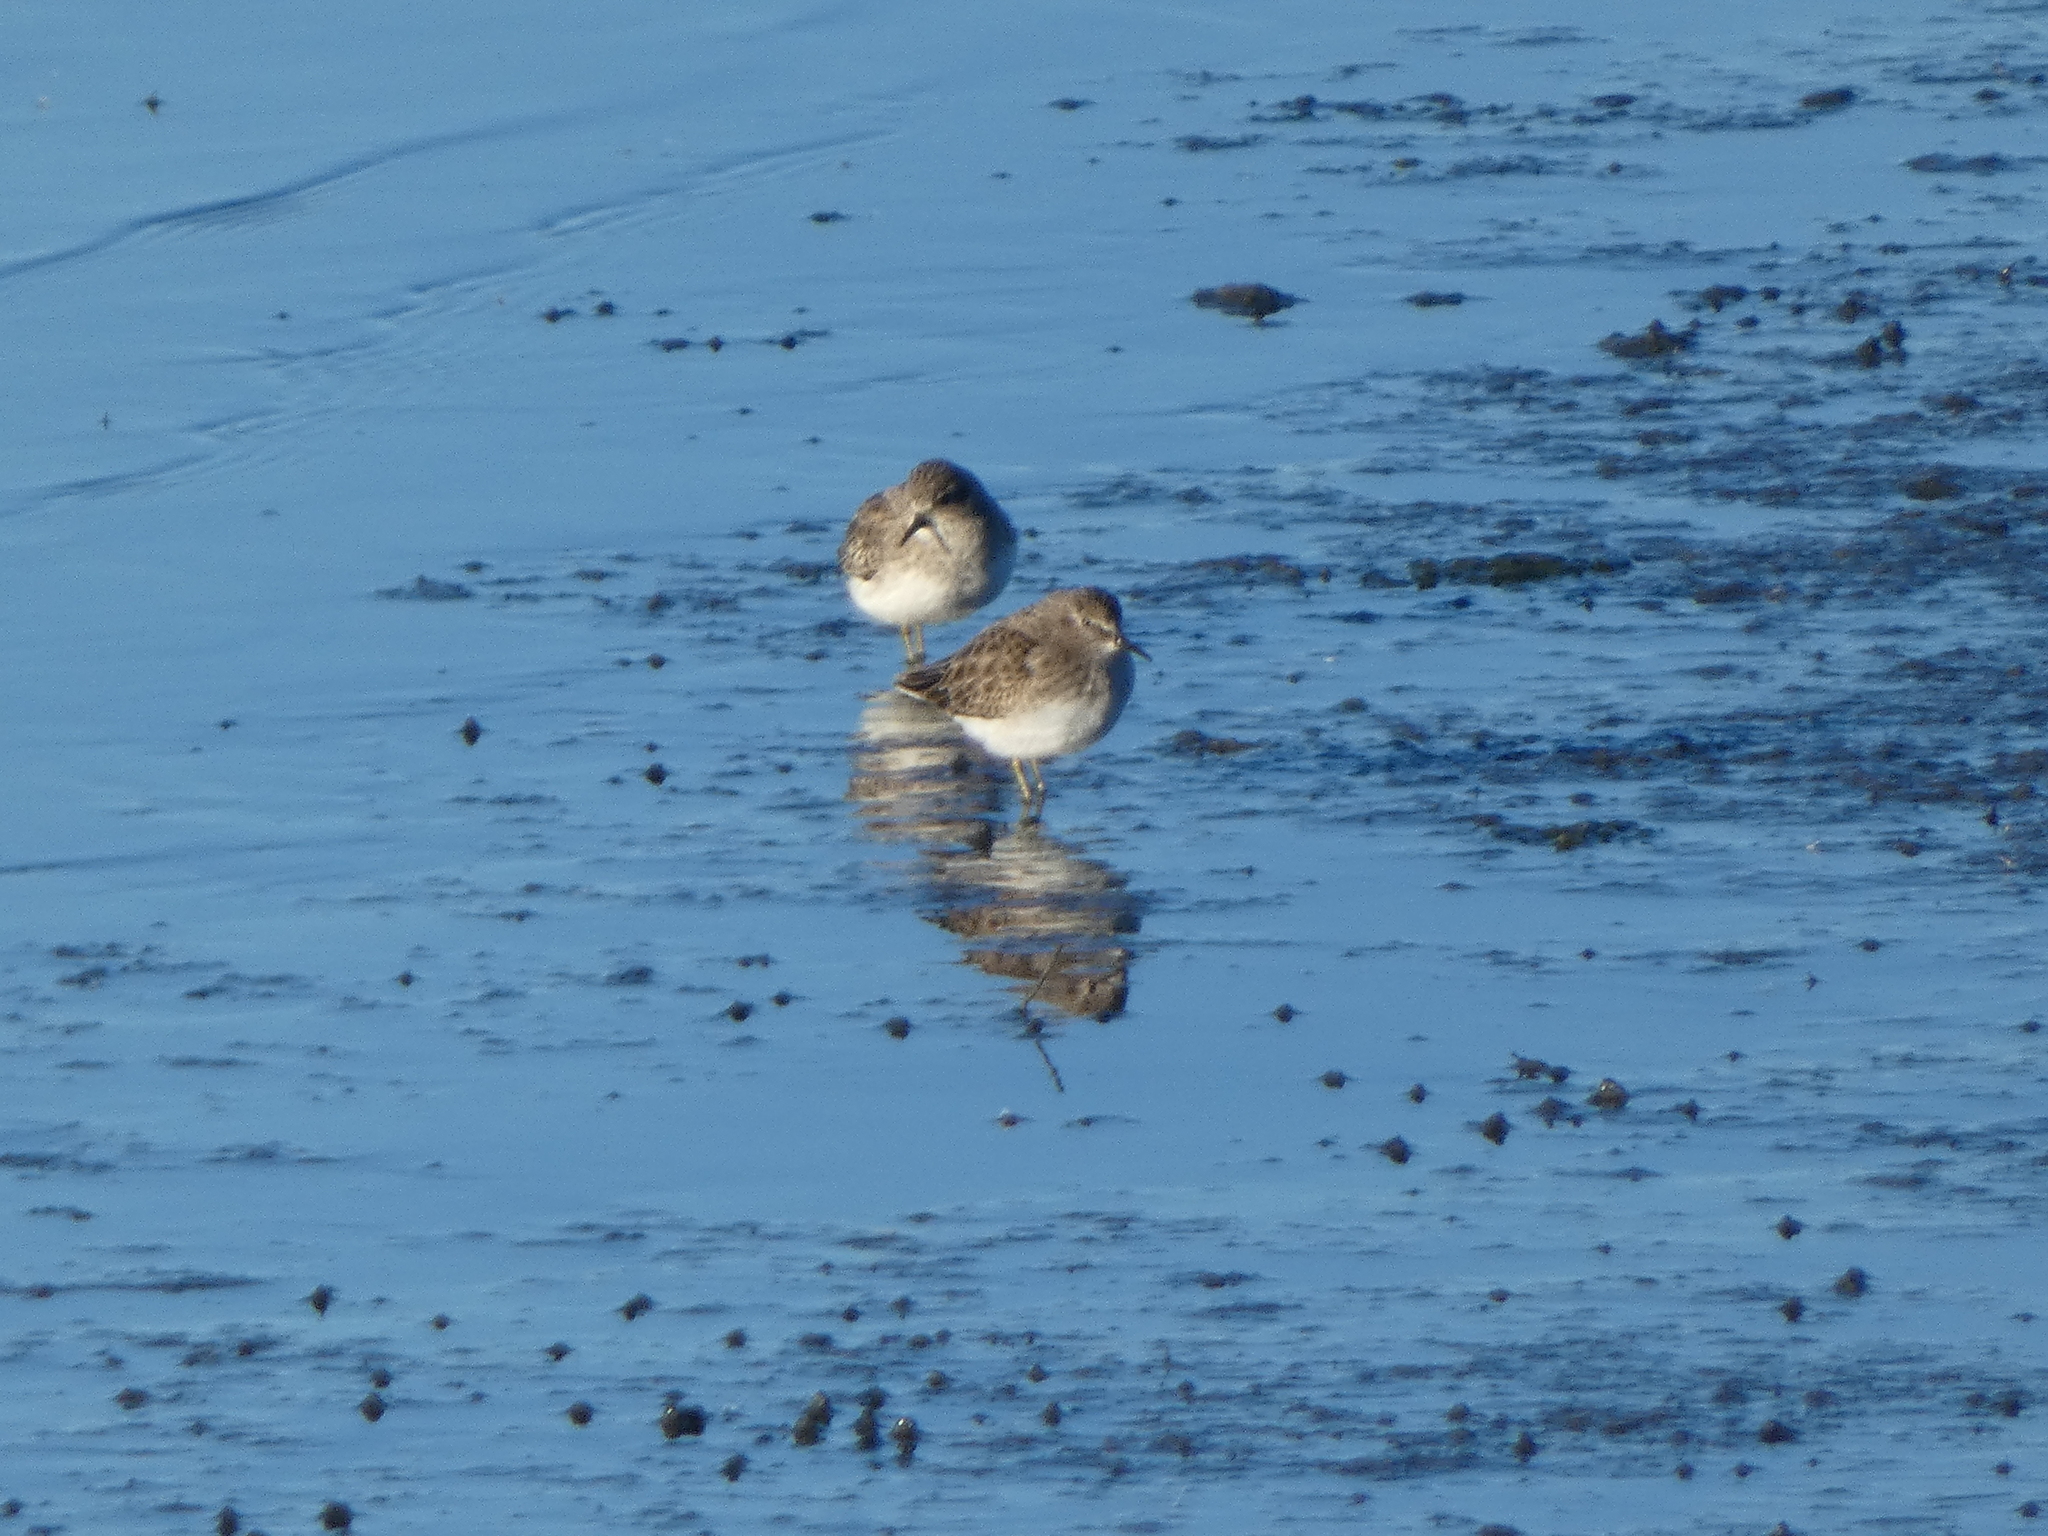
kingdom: Animalia
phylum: Chordata
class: Aves
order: Charadriiformes
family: Scolopacidae
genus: Calidris
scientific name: Calidris minutilla
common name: Least sandpiper
